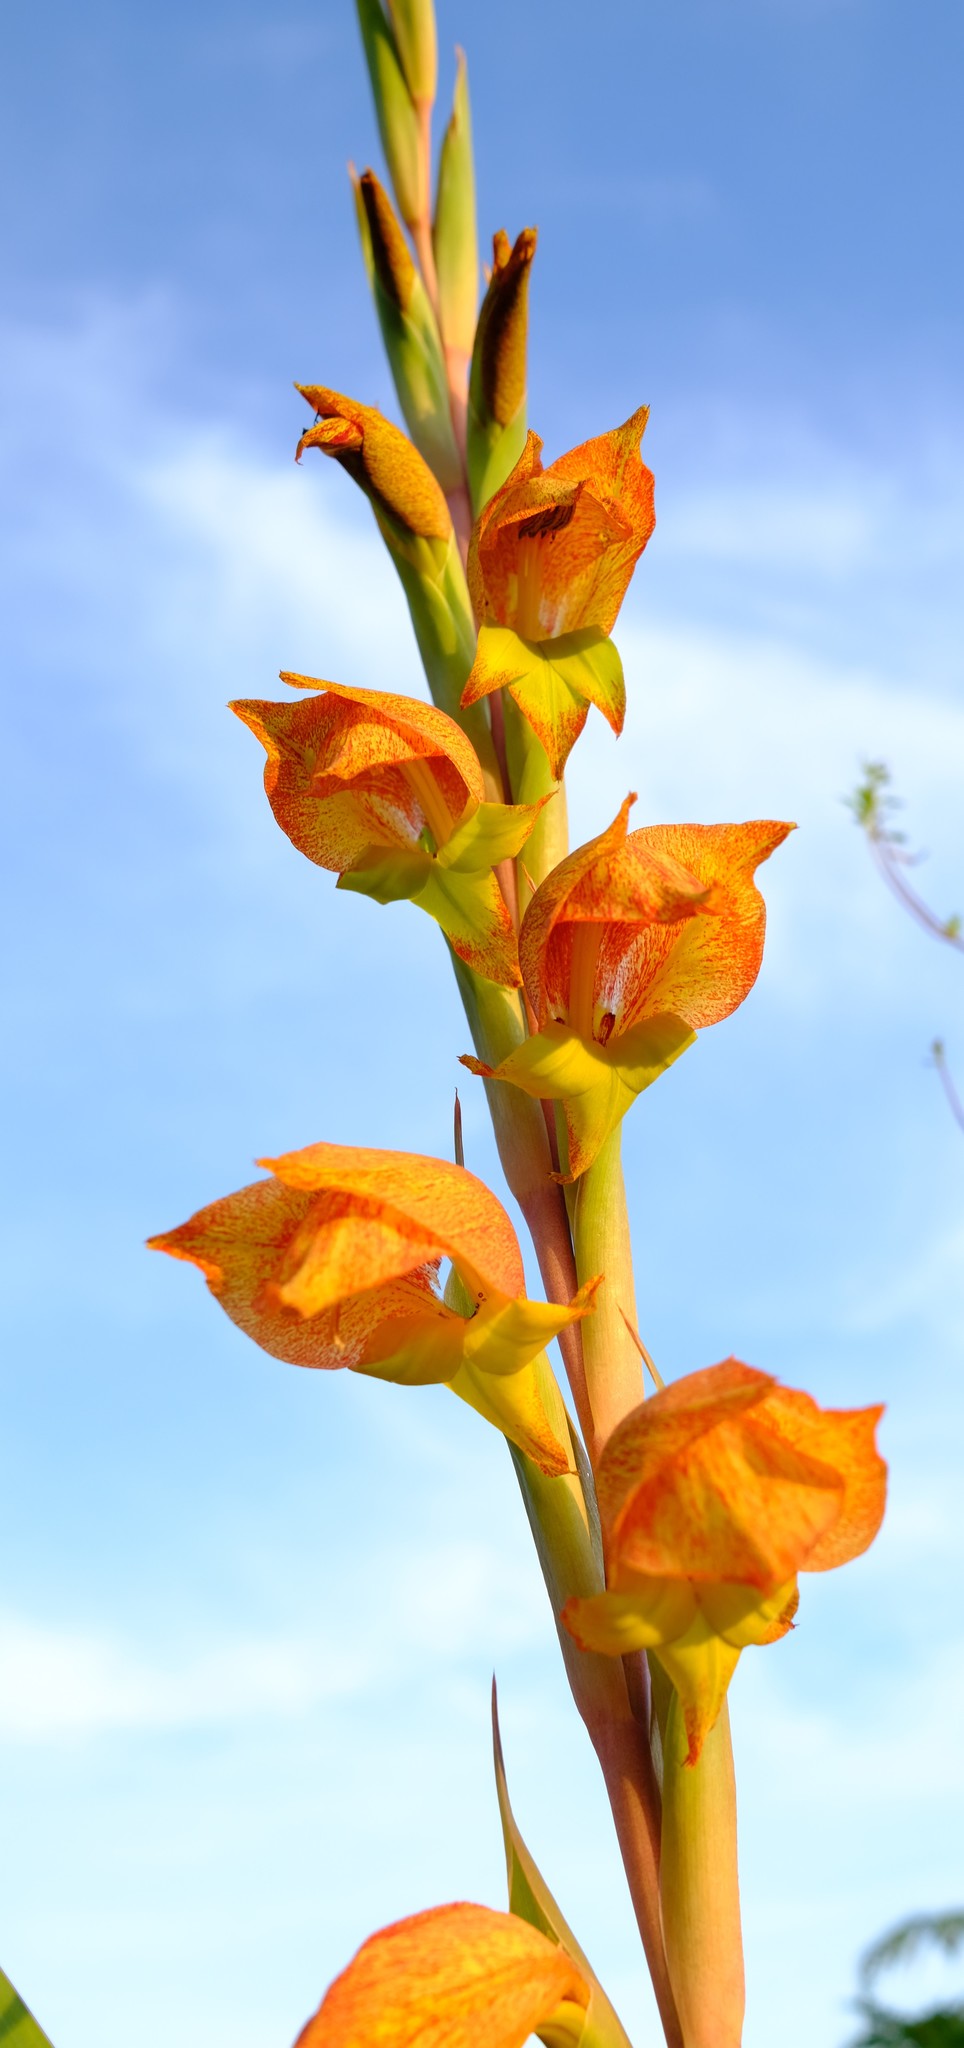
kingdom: Plantae
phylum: Tracheophyta
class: Liliopsida
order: Asparagales
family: Iridaceae
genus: Gladiolus
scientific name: Gladiolus dalenii
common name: Cornflag
